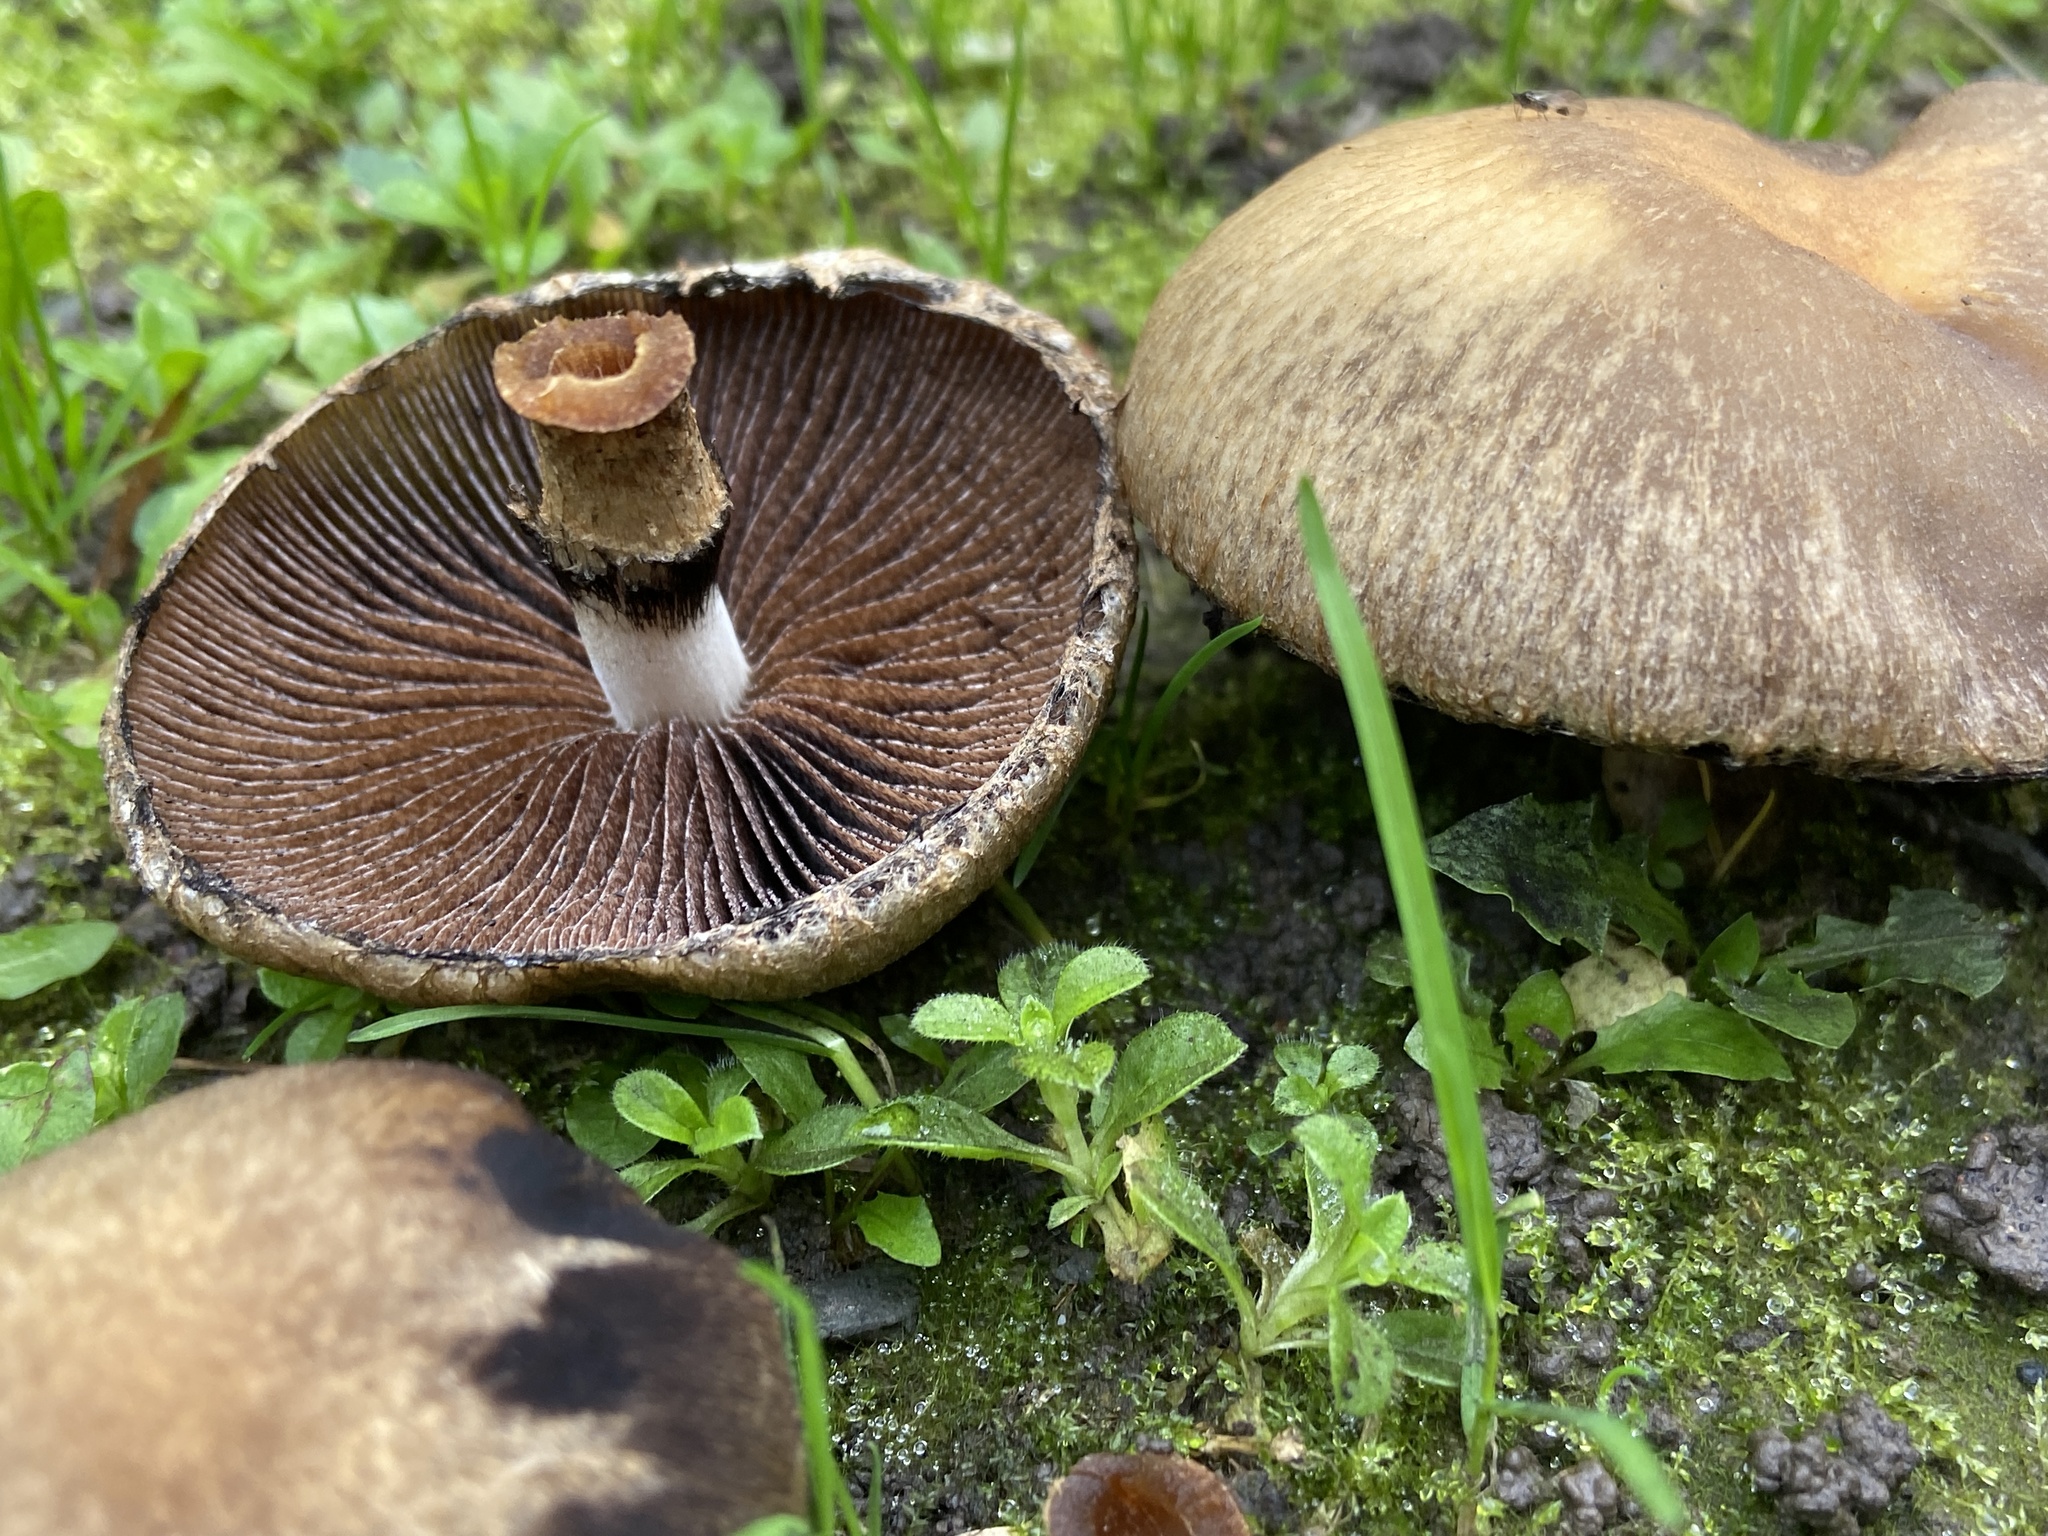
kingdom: Fungi
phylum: Basidiomycota
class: Agaricomycetes
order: Agaricales
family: Psathyrellaceae
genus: Lacrymaria
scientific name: Lacrymaria lacrymabunda
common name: Weeping widow
